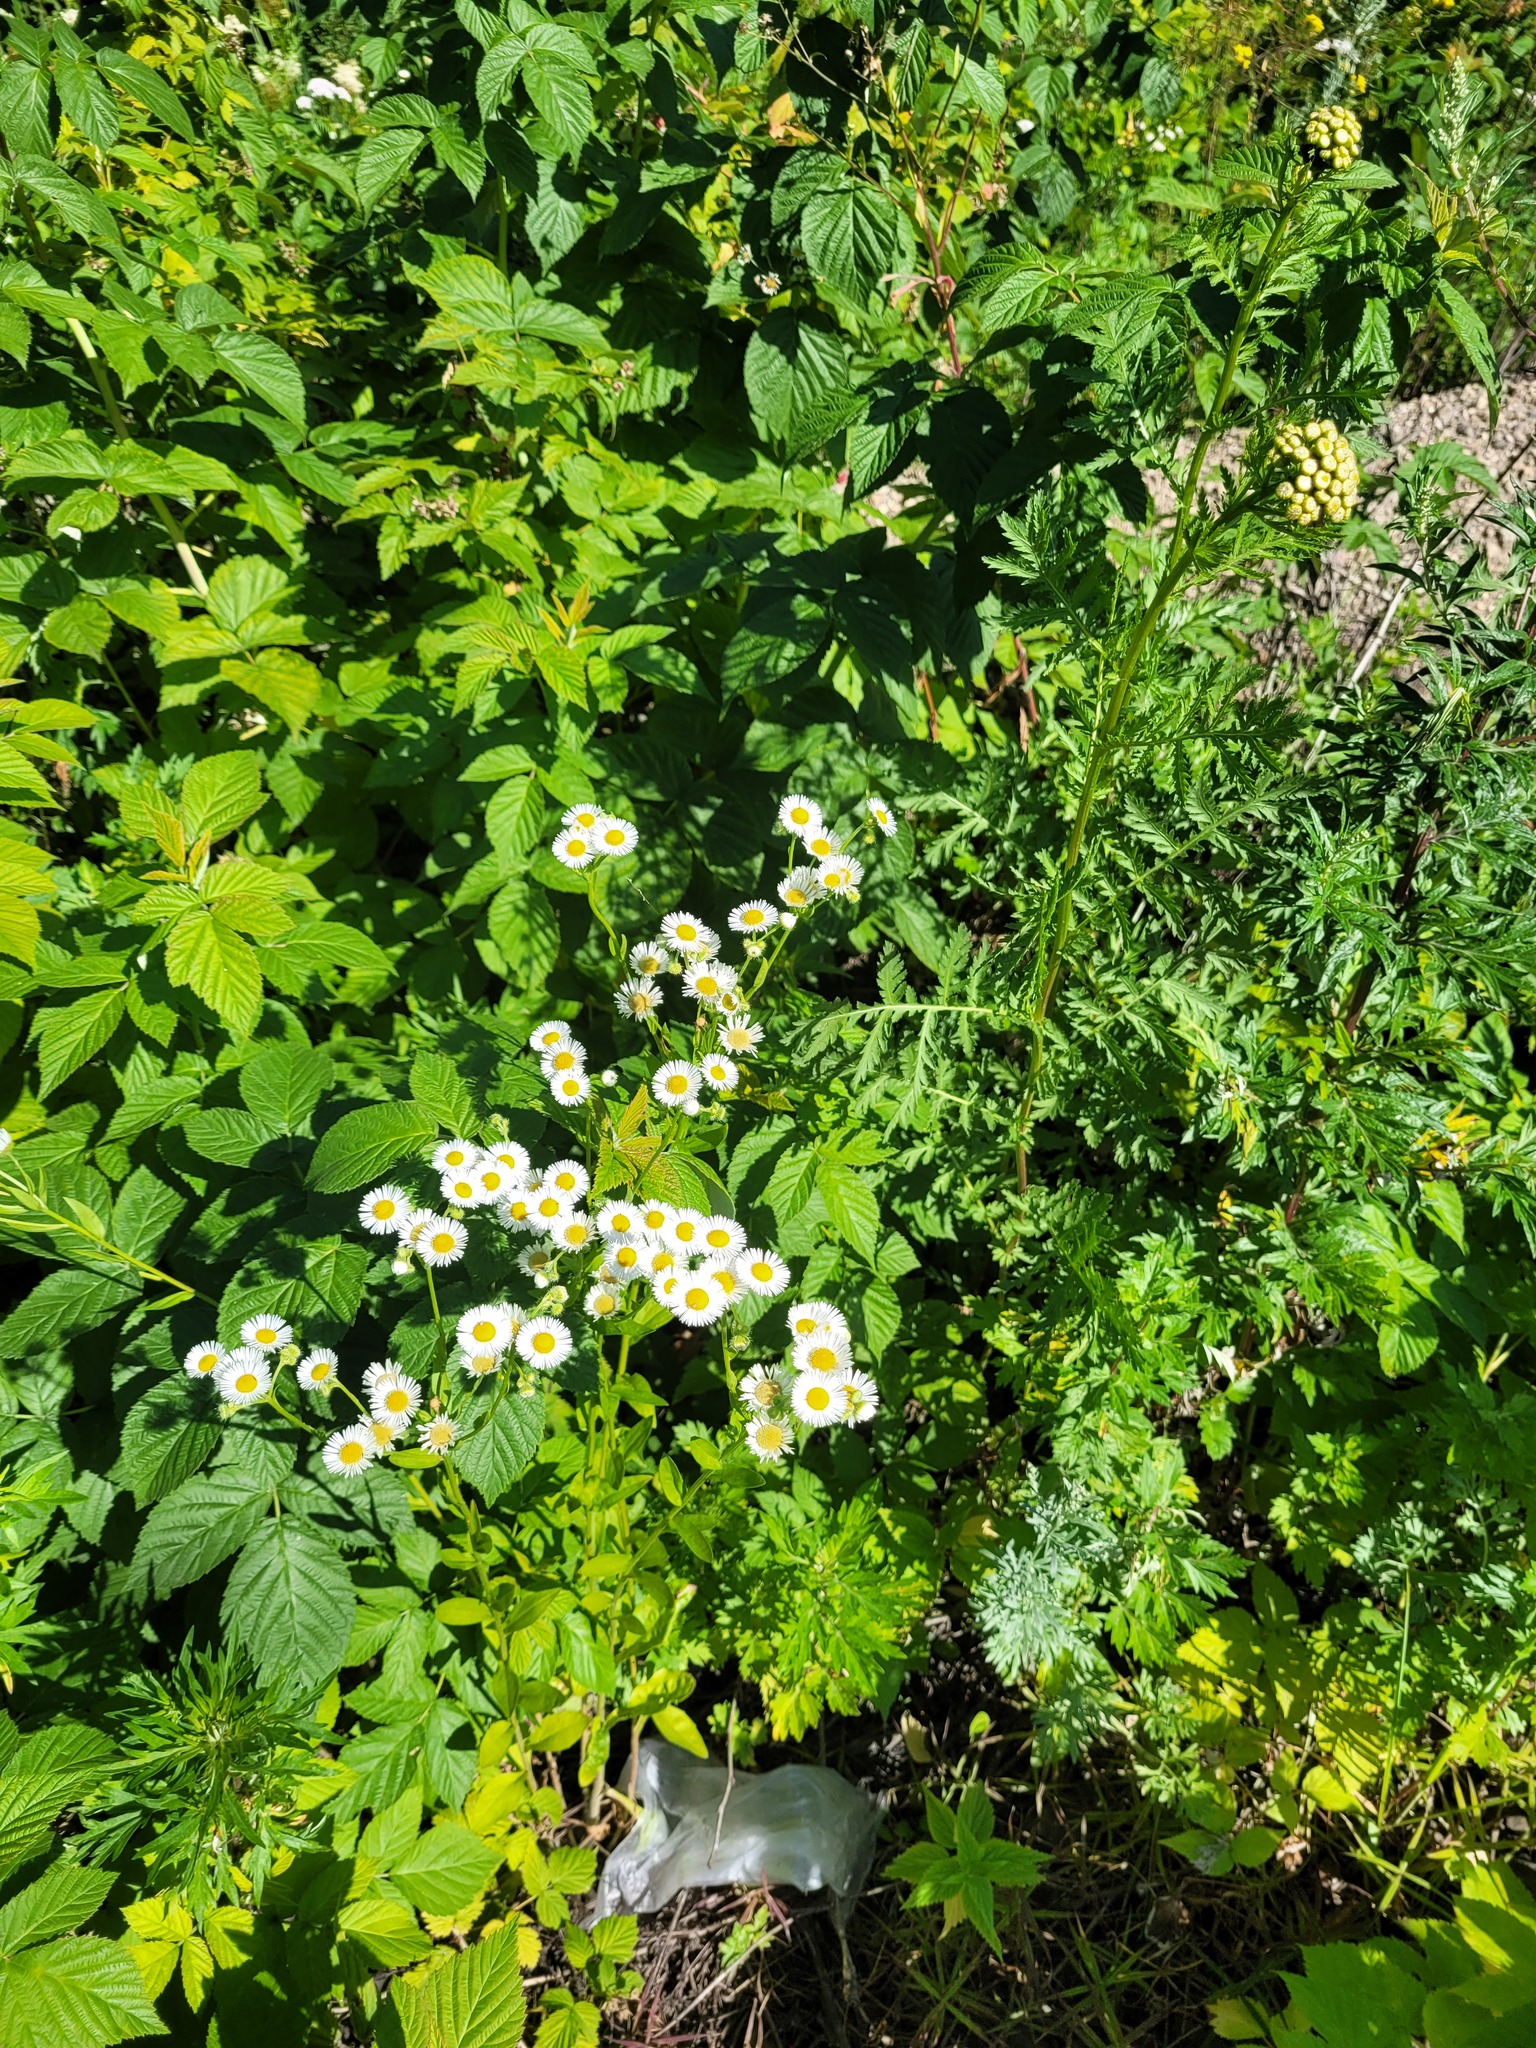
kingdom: Plantae
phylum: Tracheophyta
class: Magnoliopsida
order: Asterales
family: Asteraceae
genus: Erigeron
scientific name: Erigeron annuus
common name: Tall fleabane
